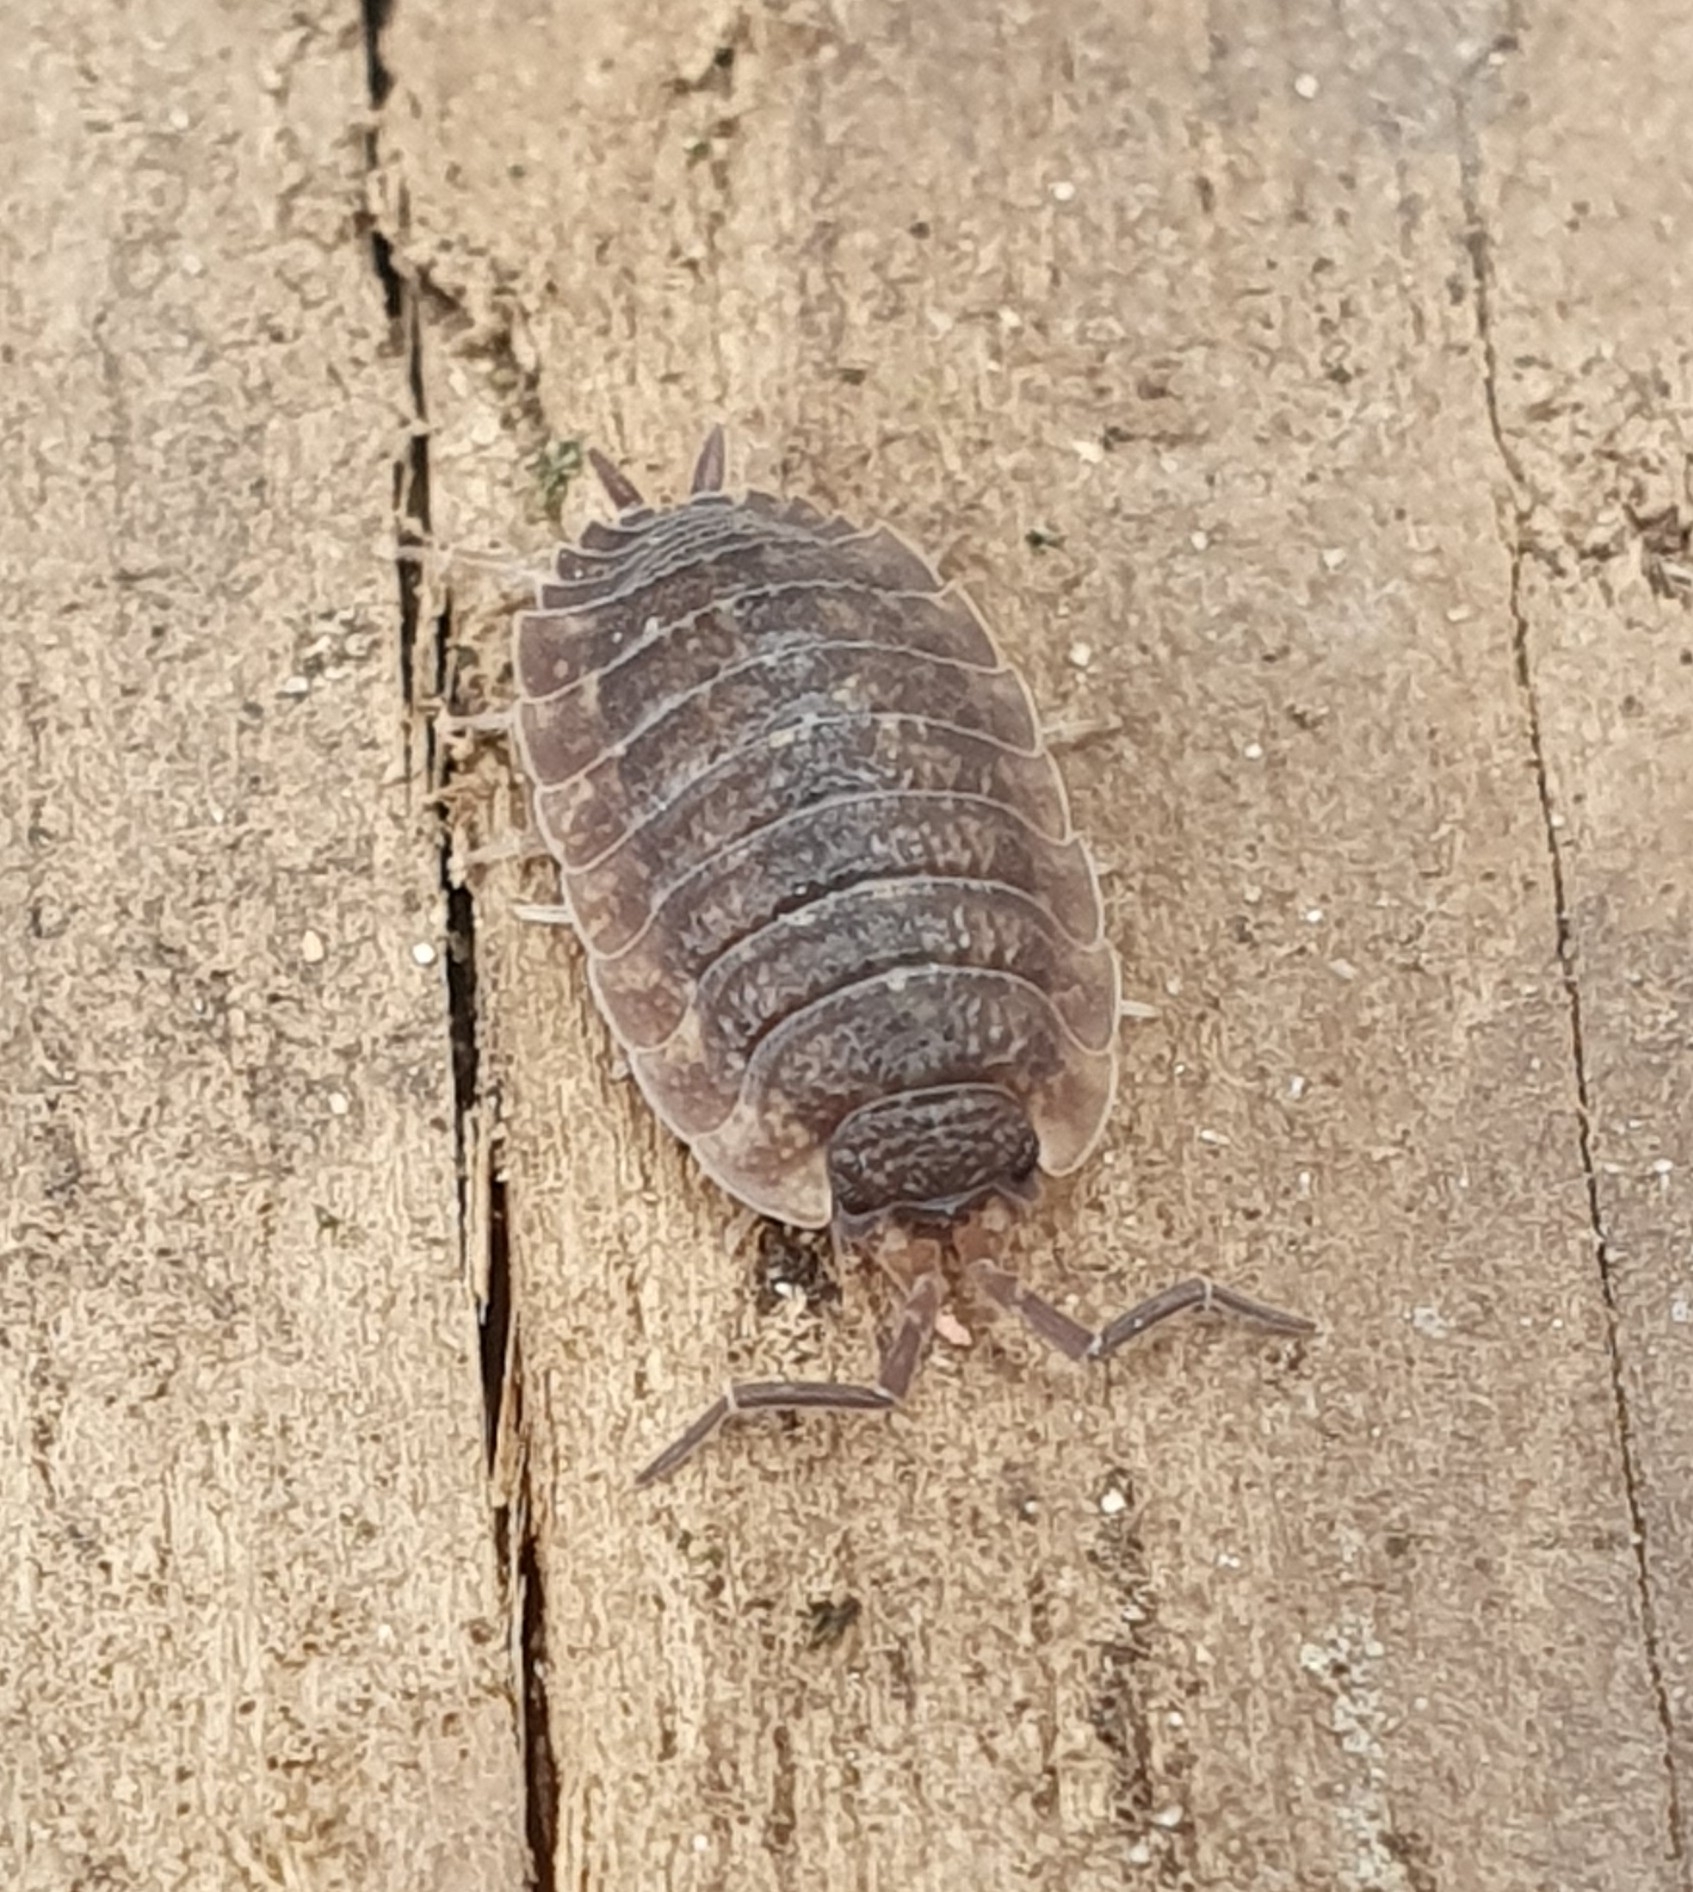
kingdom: Animalia
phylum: Arthropoda
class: Malacostraca
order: Isopoda
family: Porcellionidae
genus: Porcellio
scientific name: Porcellio scaber
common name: Common rough woodlouse
